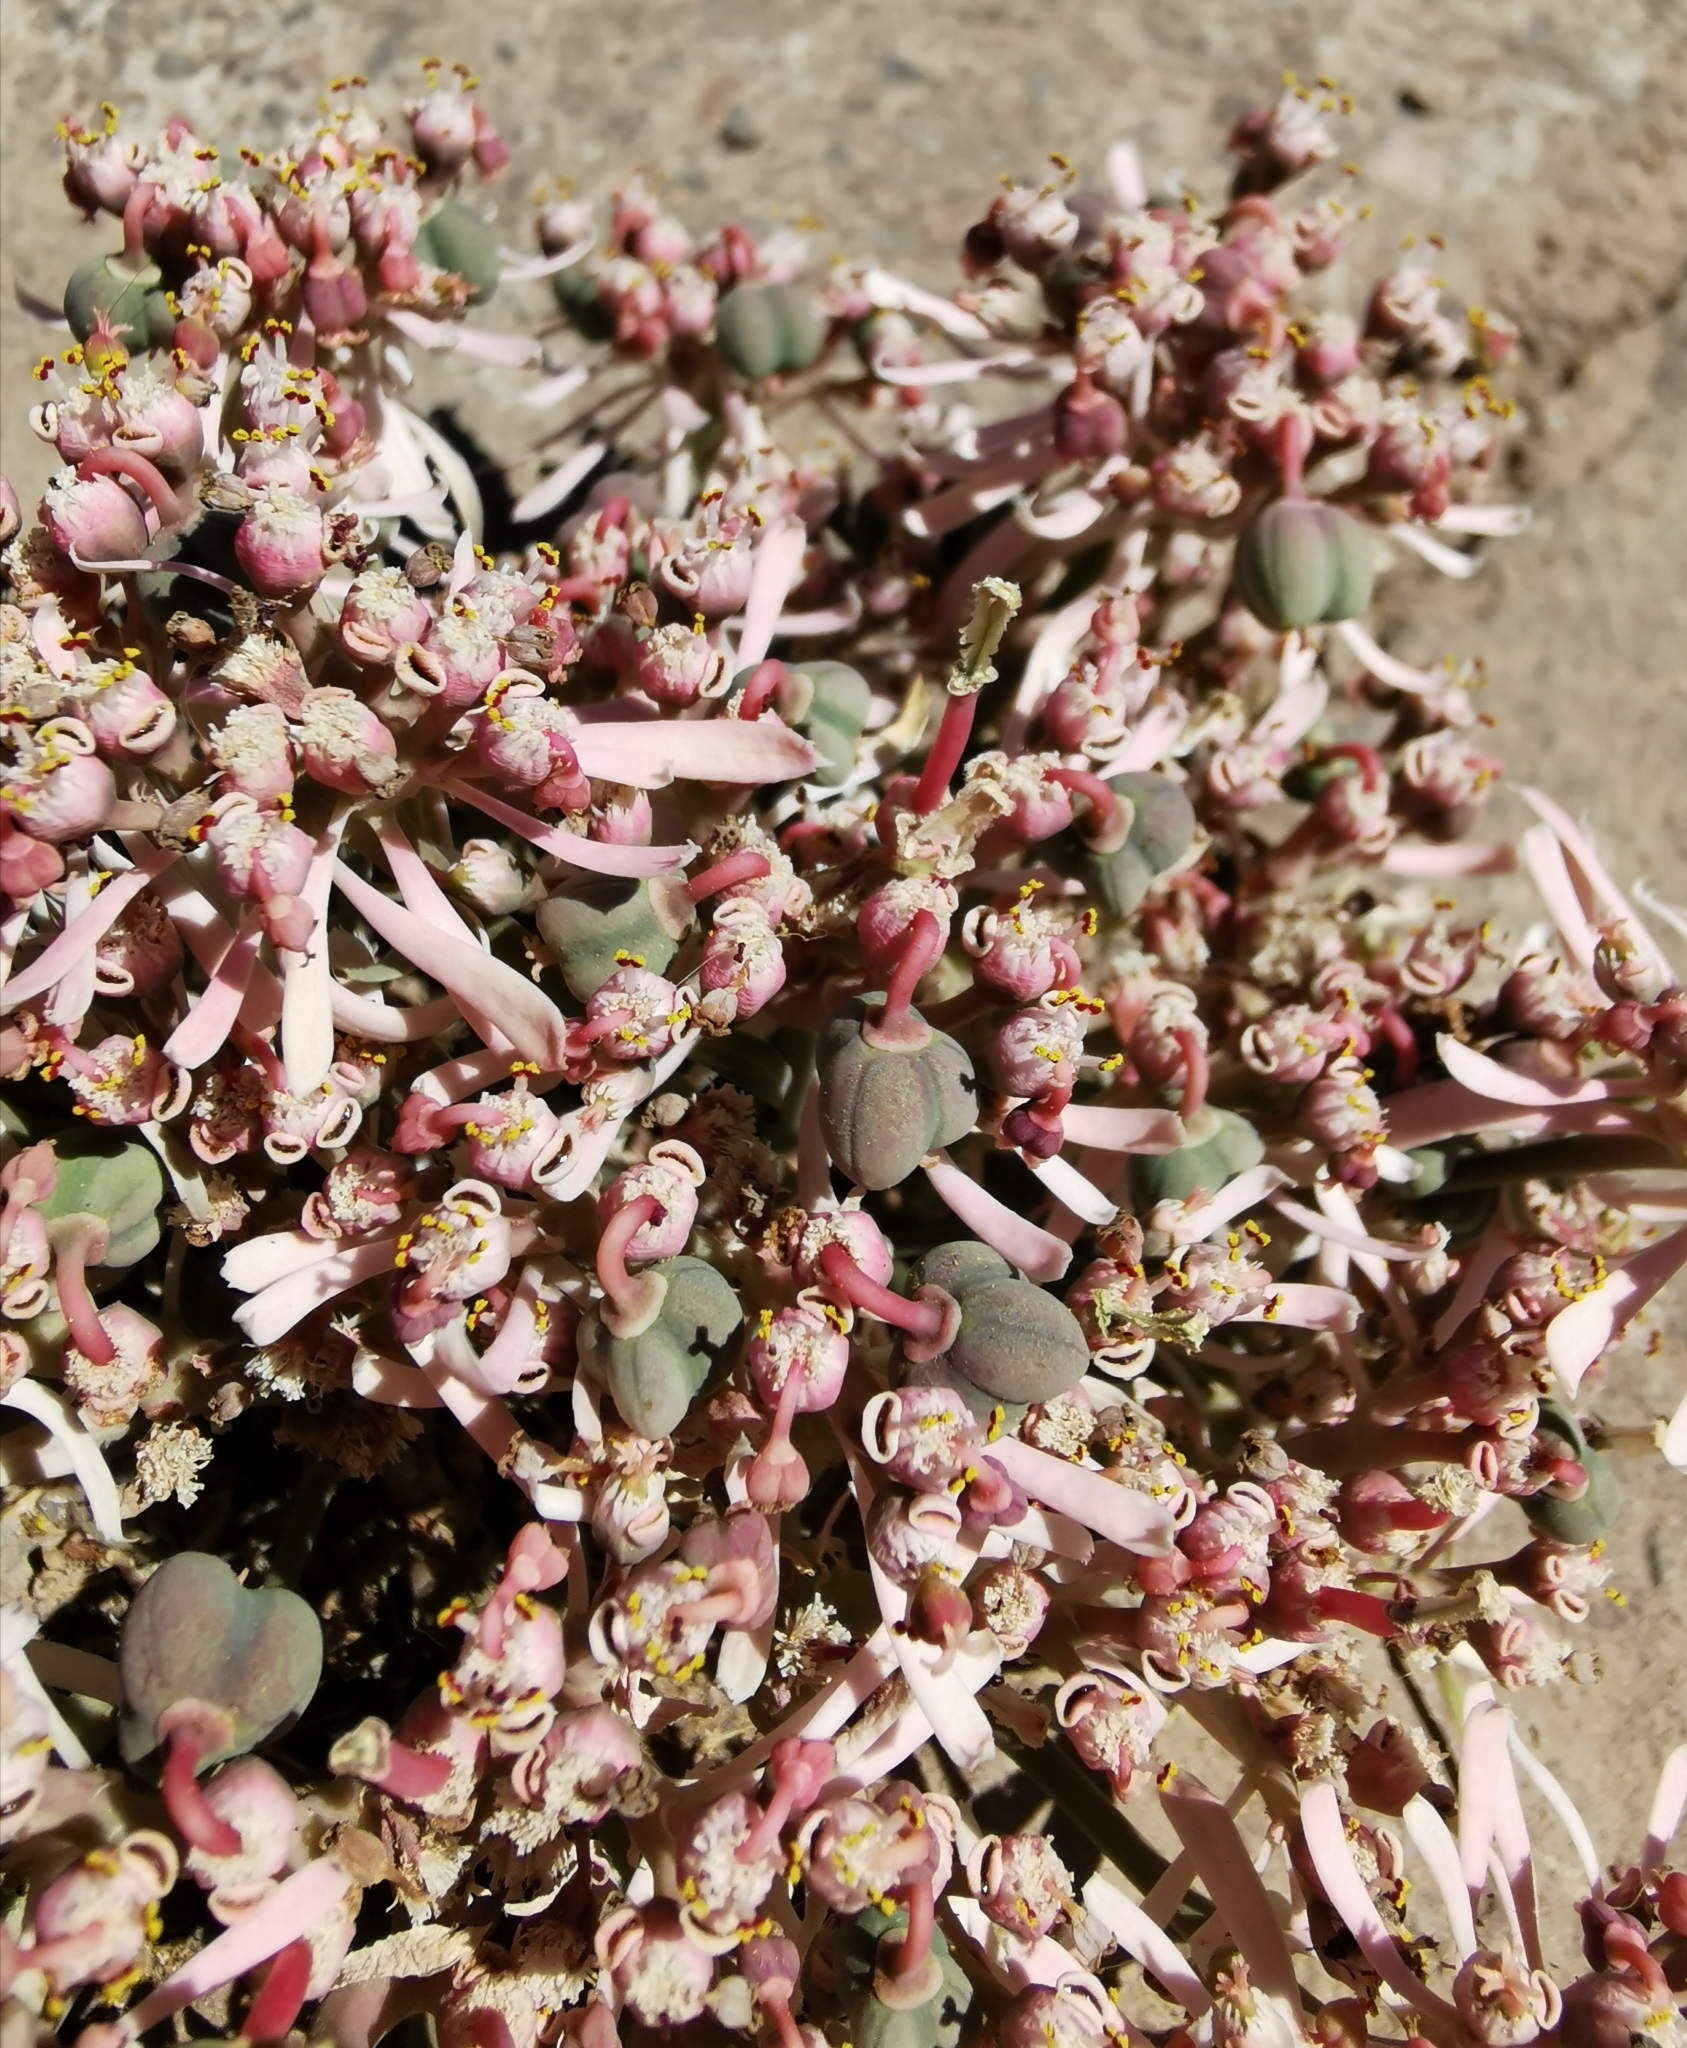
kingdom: Plantae
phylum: Tracheophyta
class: Magnoliopsida
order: Malpighiales
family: Euphorbiaceae
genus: Euphorbia
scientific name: Euphorbia radians
